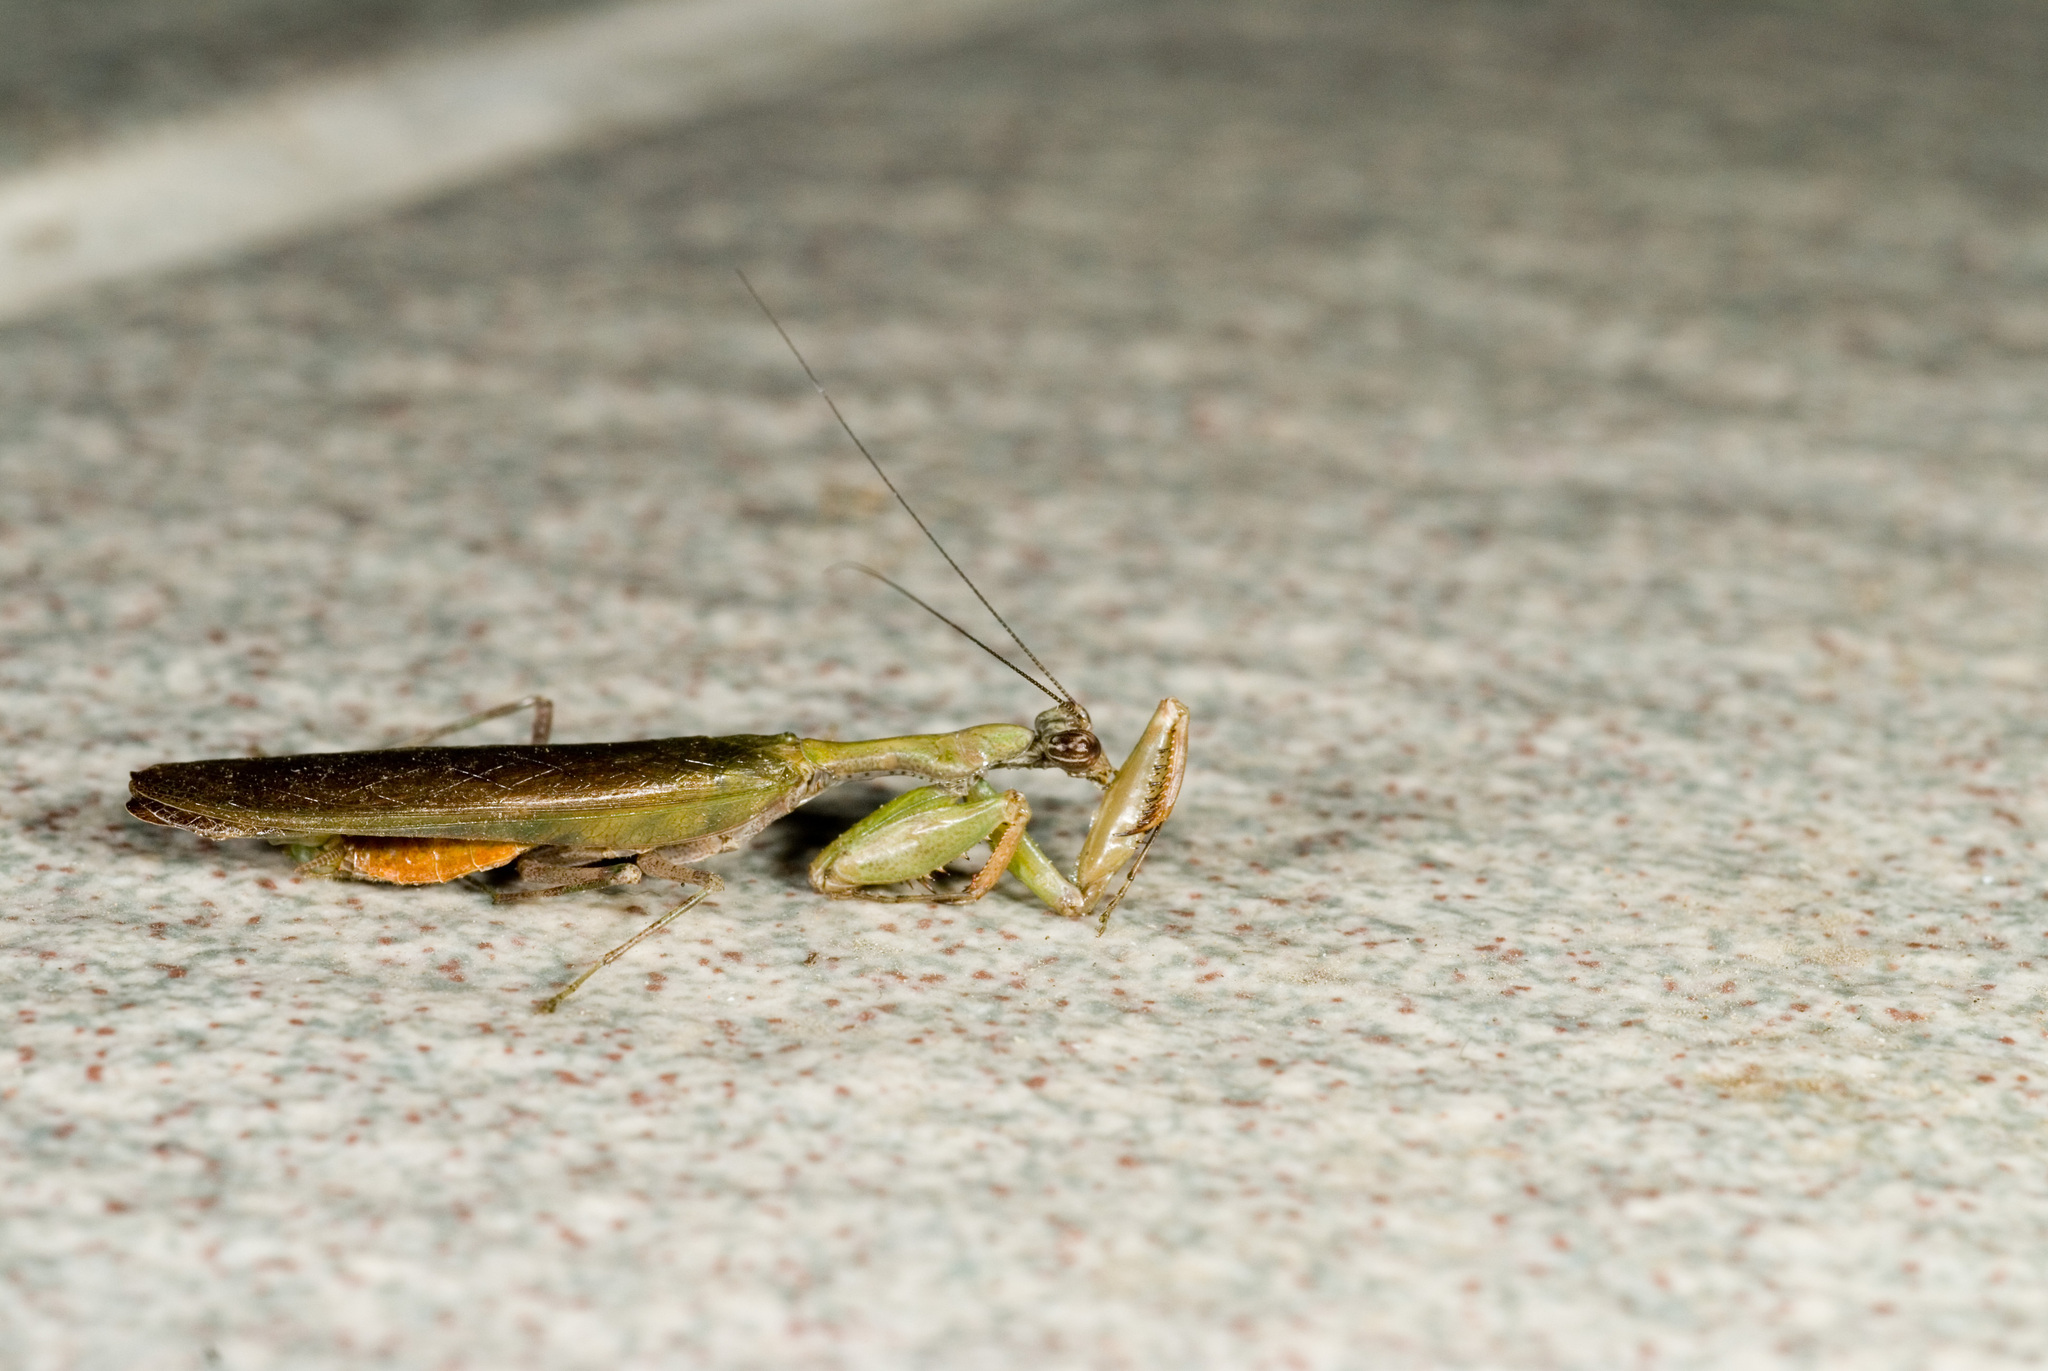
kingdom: Animalia
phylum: Arthropoda
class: Insecta
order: Mantodea
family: Hymenopodidae
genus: Acromantis
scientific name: Acromantis japonica
